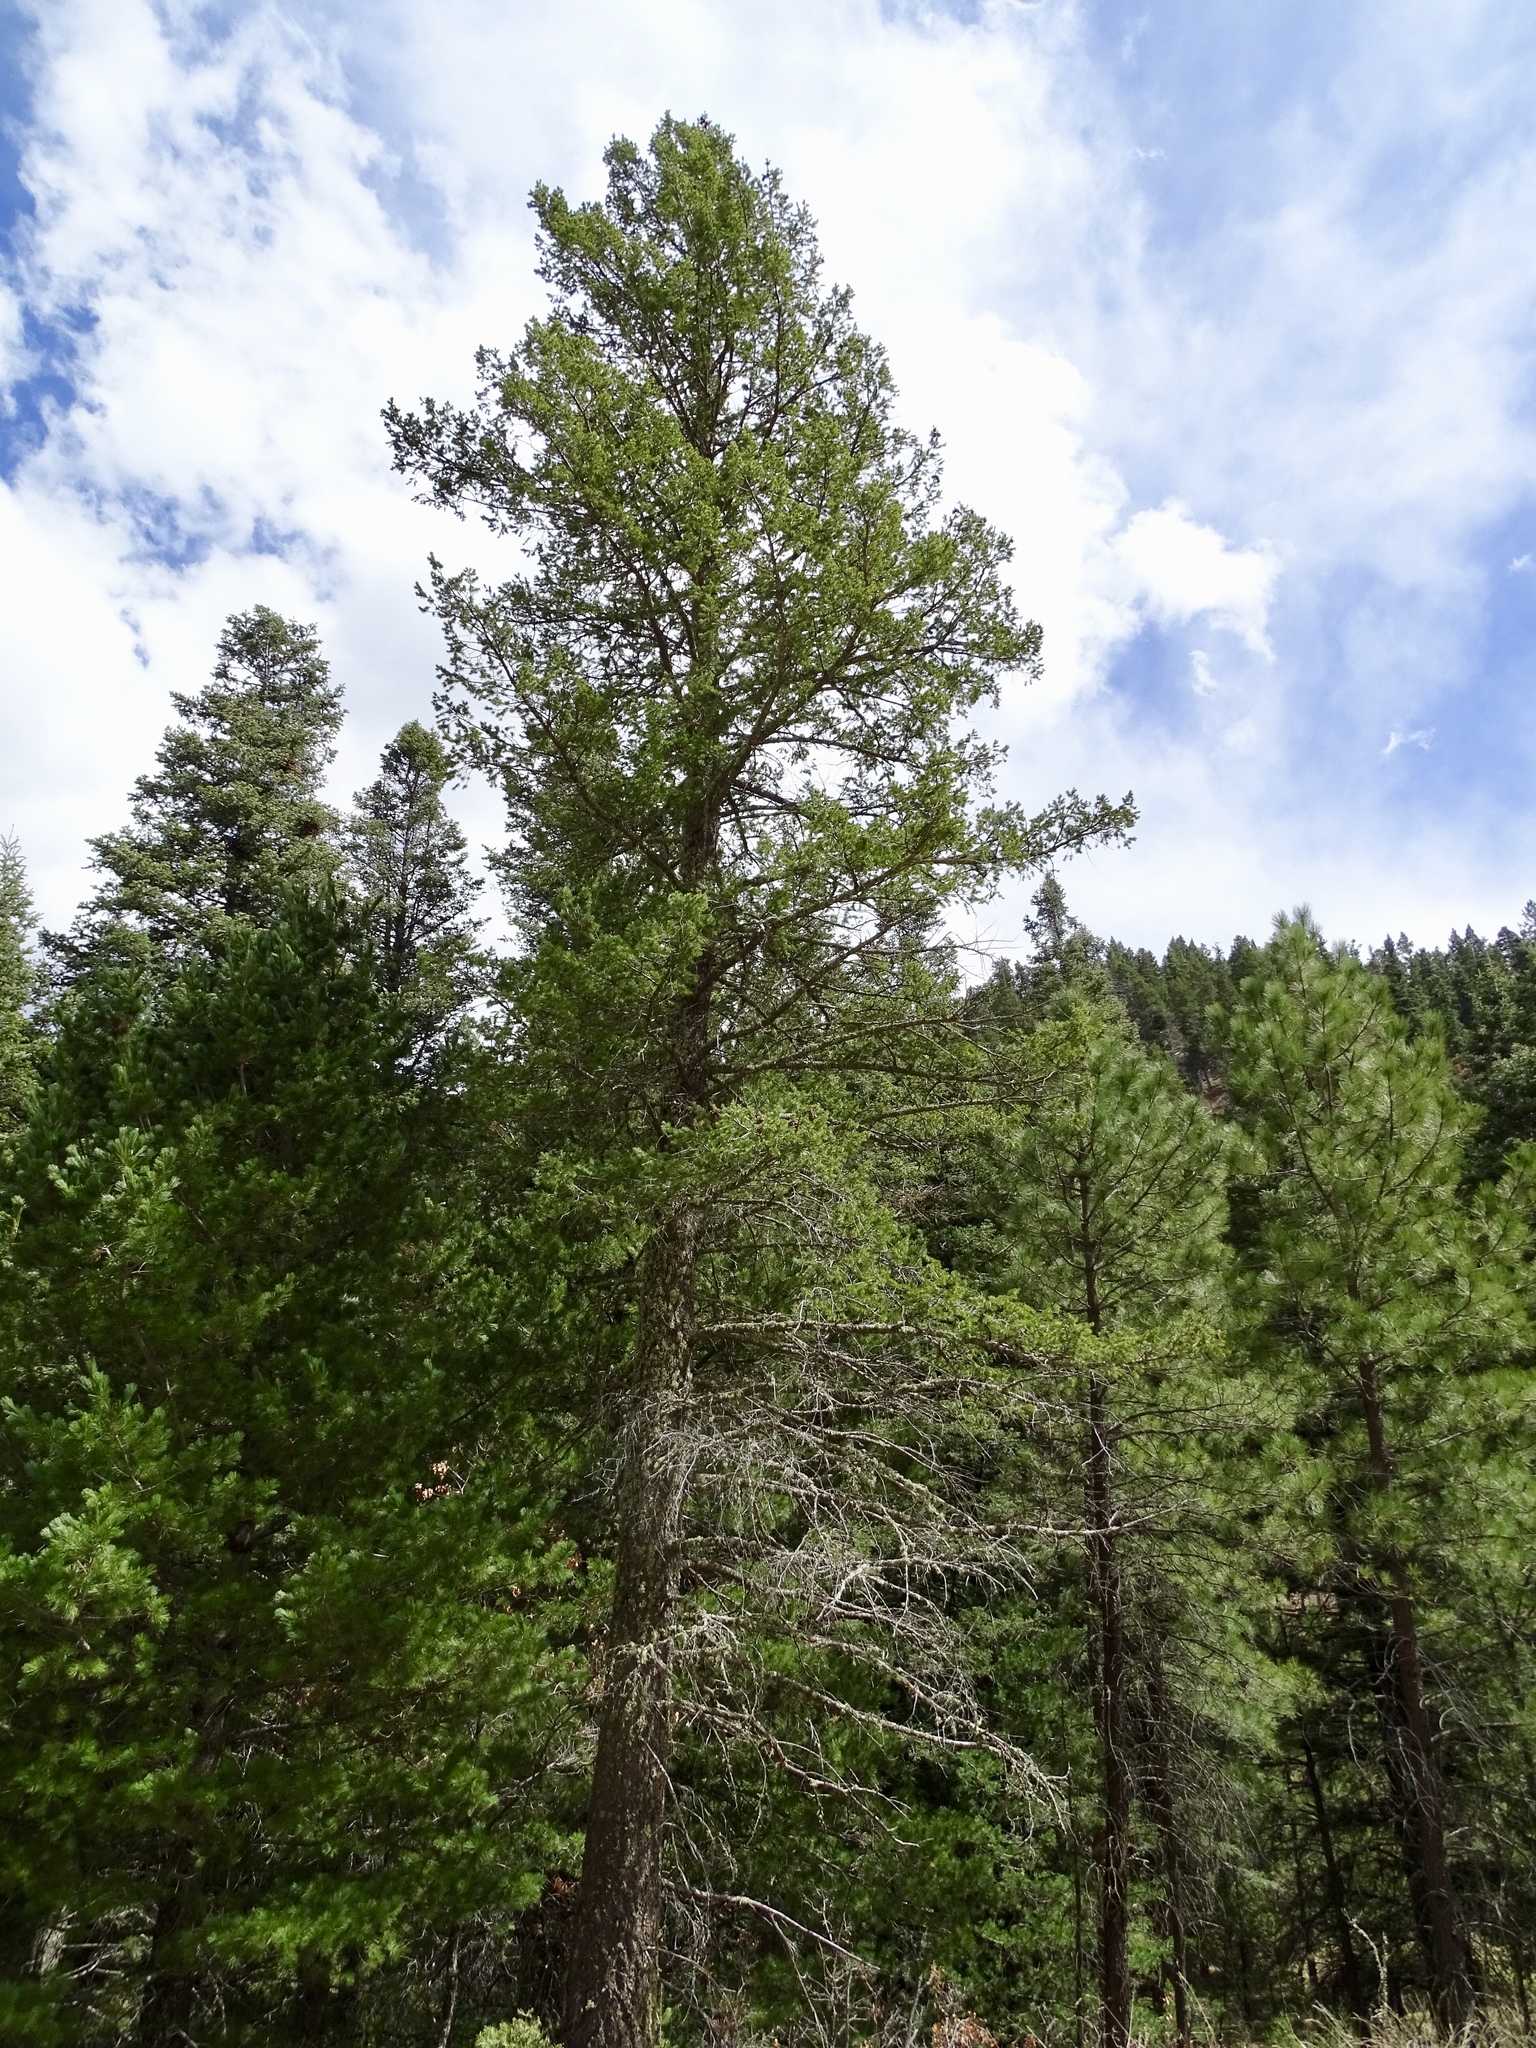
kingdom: Plantae
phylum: Tracheophyta
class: Pinopsida
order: Pinales
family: Pinaceae
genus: Pseudotsuga
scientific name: Pseudotsuga menziesii
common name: Douglas fir
